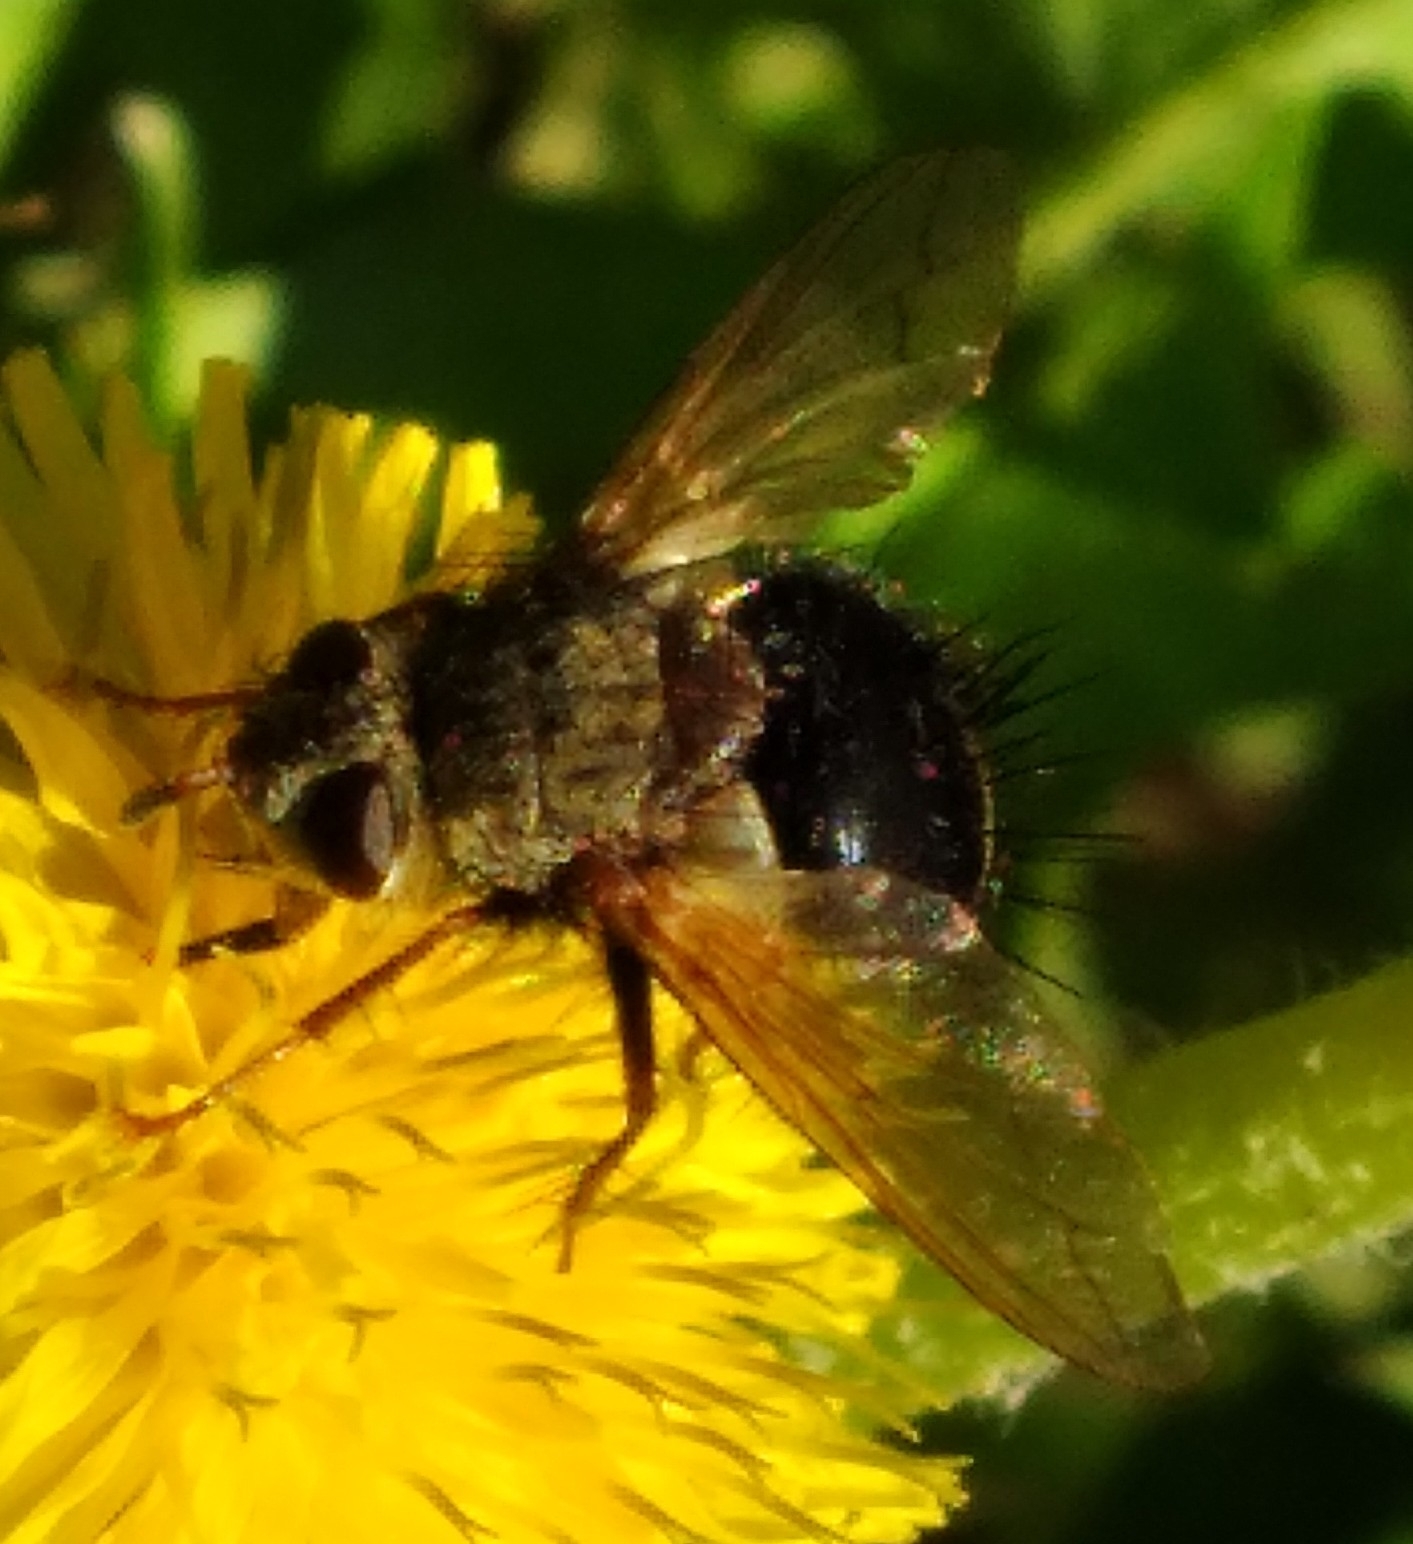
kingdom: Animalia
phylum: Arthropoda
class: Insecta
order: Diptera
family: Tachinidae
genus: Epalpus
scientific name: Epalpus signifer
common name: Early tachinid fly
